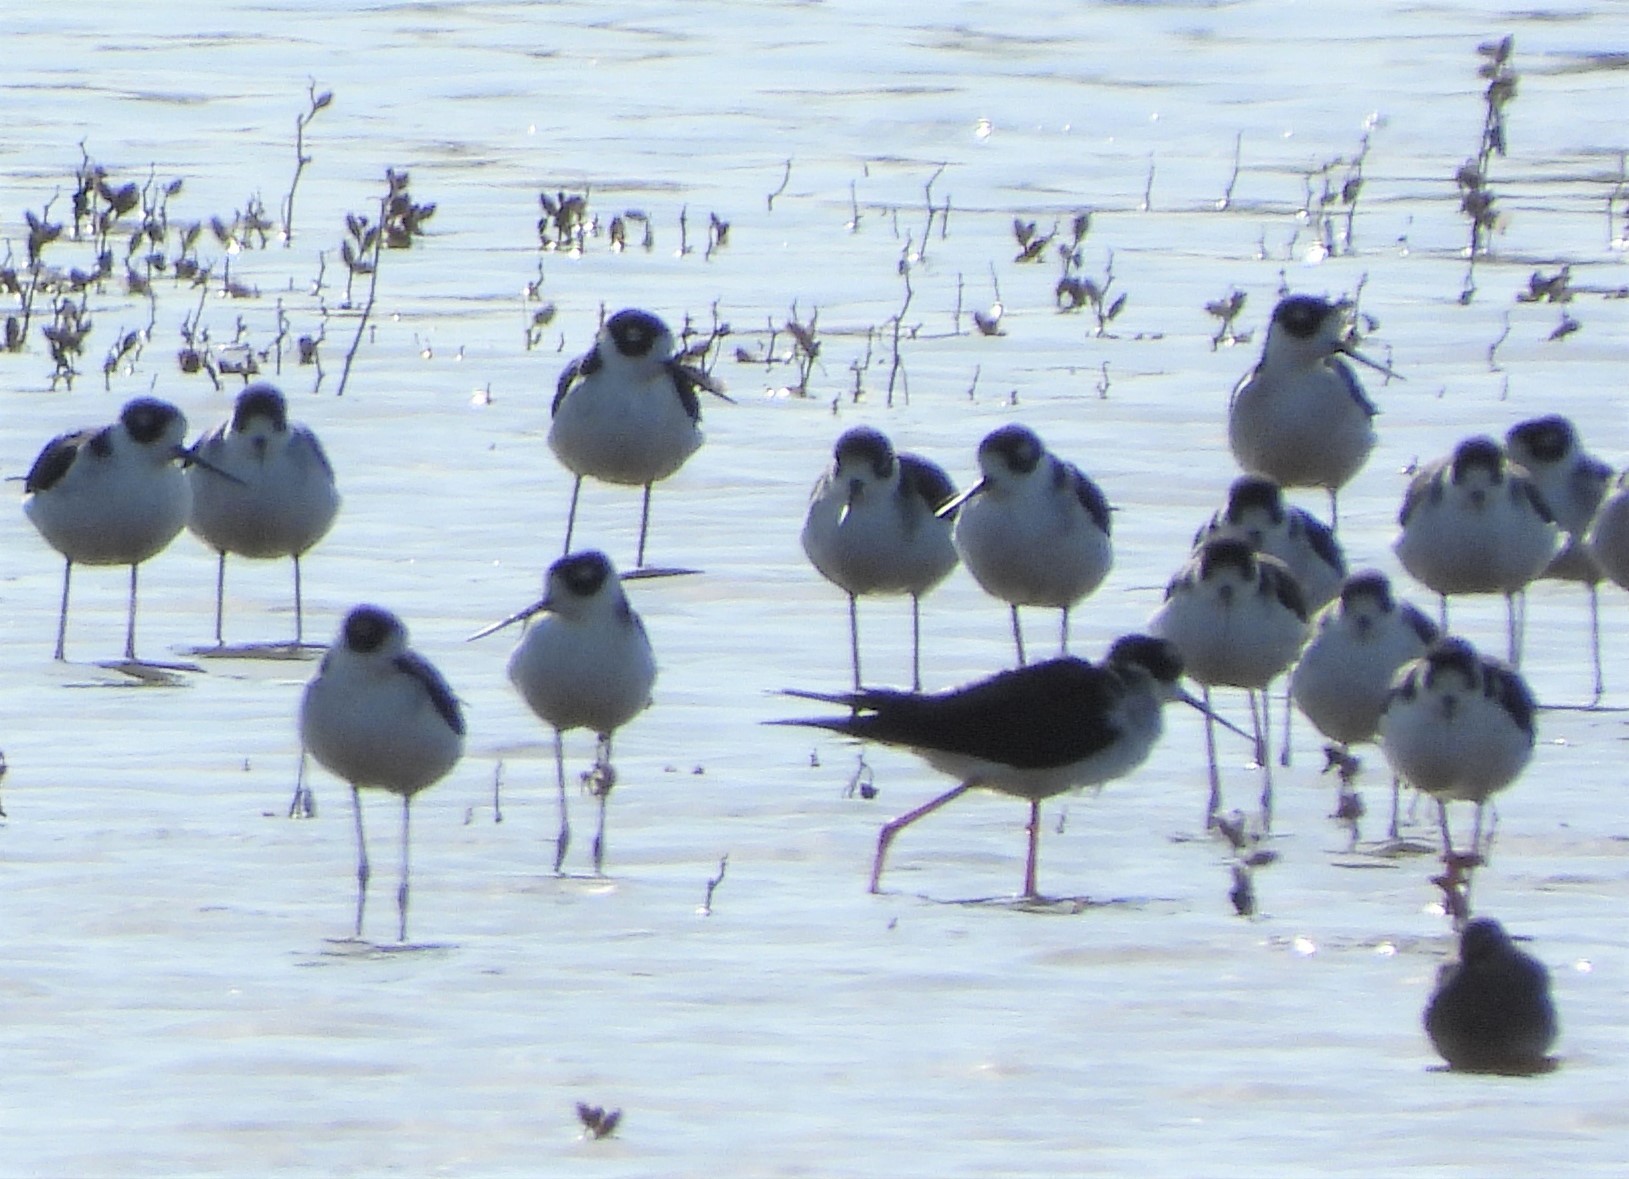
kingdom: Animalia
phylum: Chordata
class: Aves
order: Charadriiformes
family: Recurvirostridae
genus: Himantopus
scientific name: Himantopus mexicanus
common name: Black-necked stilt
